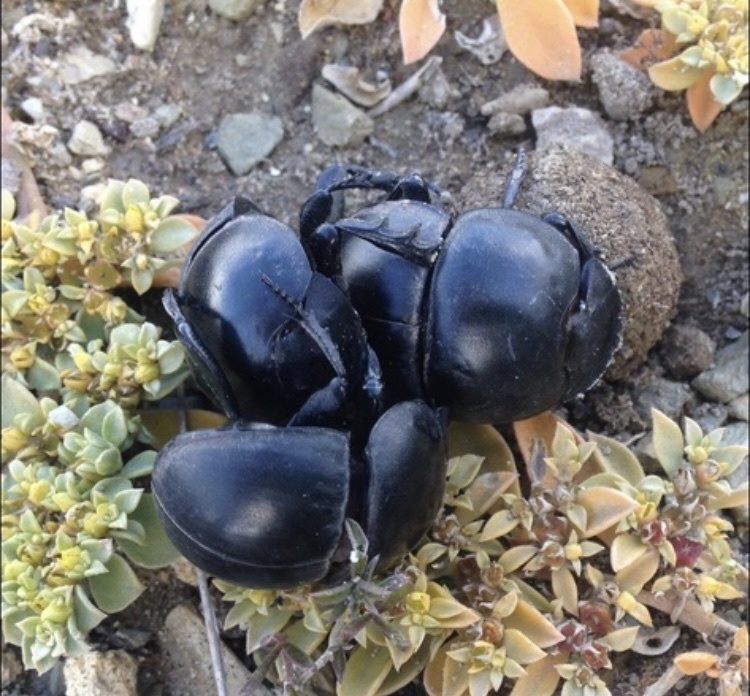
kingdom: Animalia
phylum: Arthropoda
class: Insecta
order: Coleoptera
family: Scarabaeidae
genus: Circellium
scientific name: Circellium bacchus
